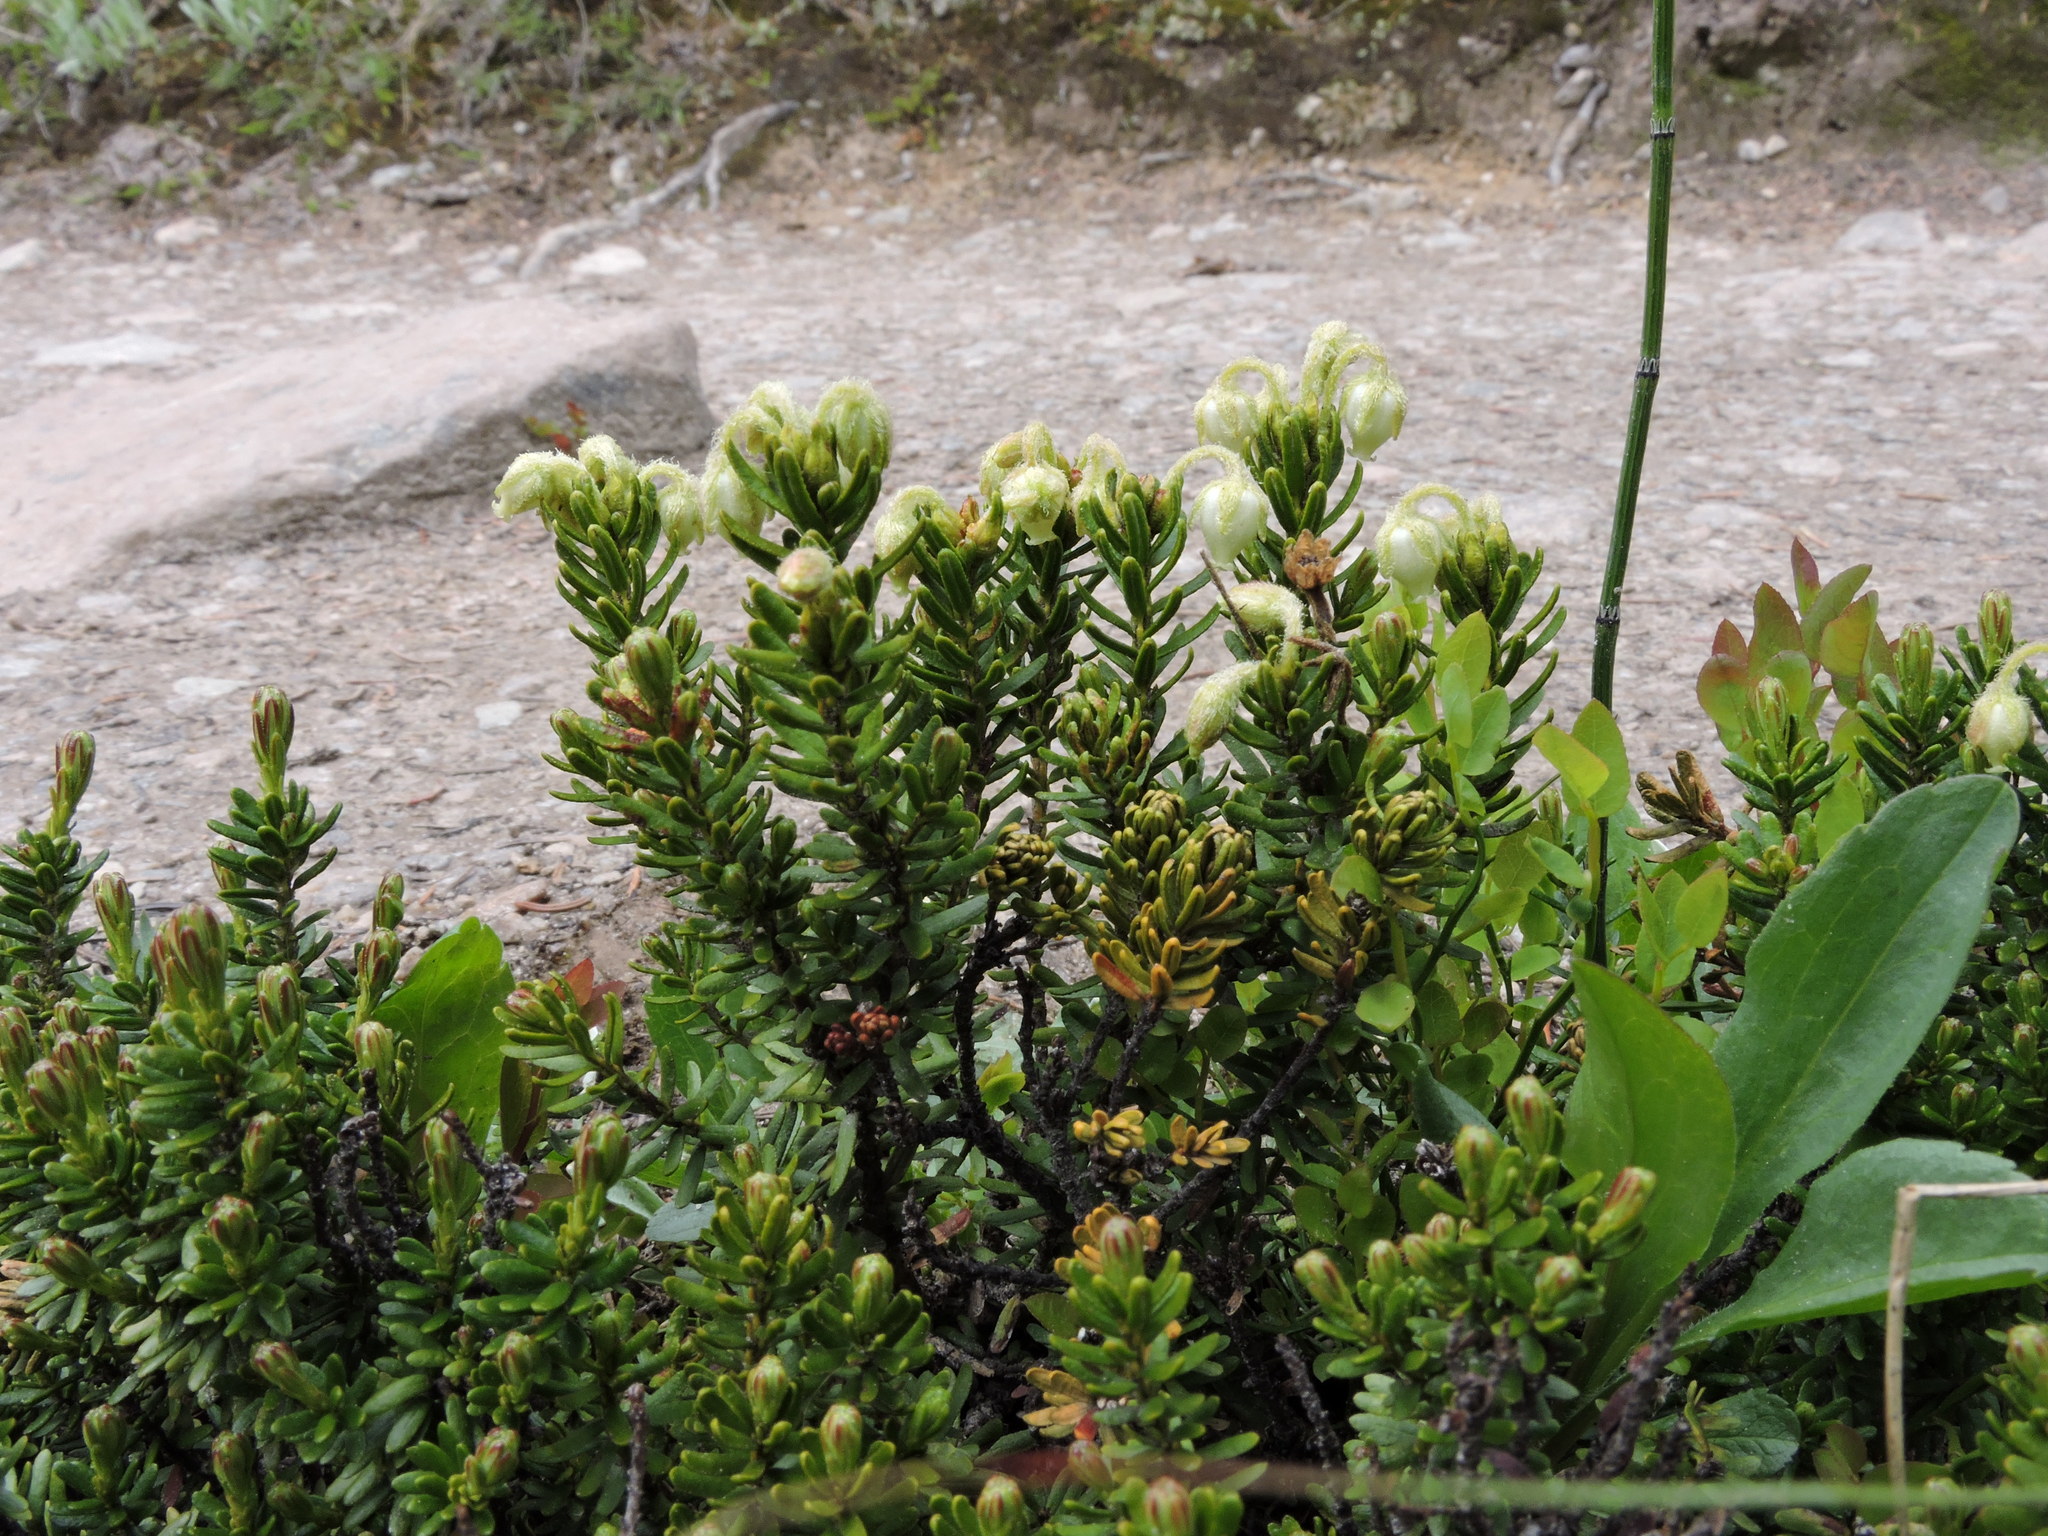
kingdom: Plantae
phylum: Tracheophyta
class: Magnoliopsida
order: Ericales
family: Ericaceae
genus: Phyllodoce
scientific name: Phyllodoce glanduliflora
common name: Cream mountain heather
